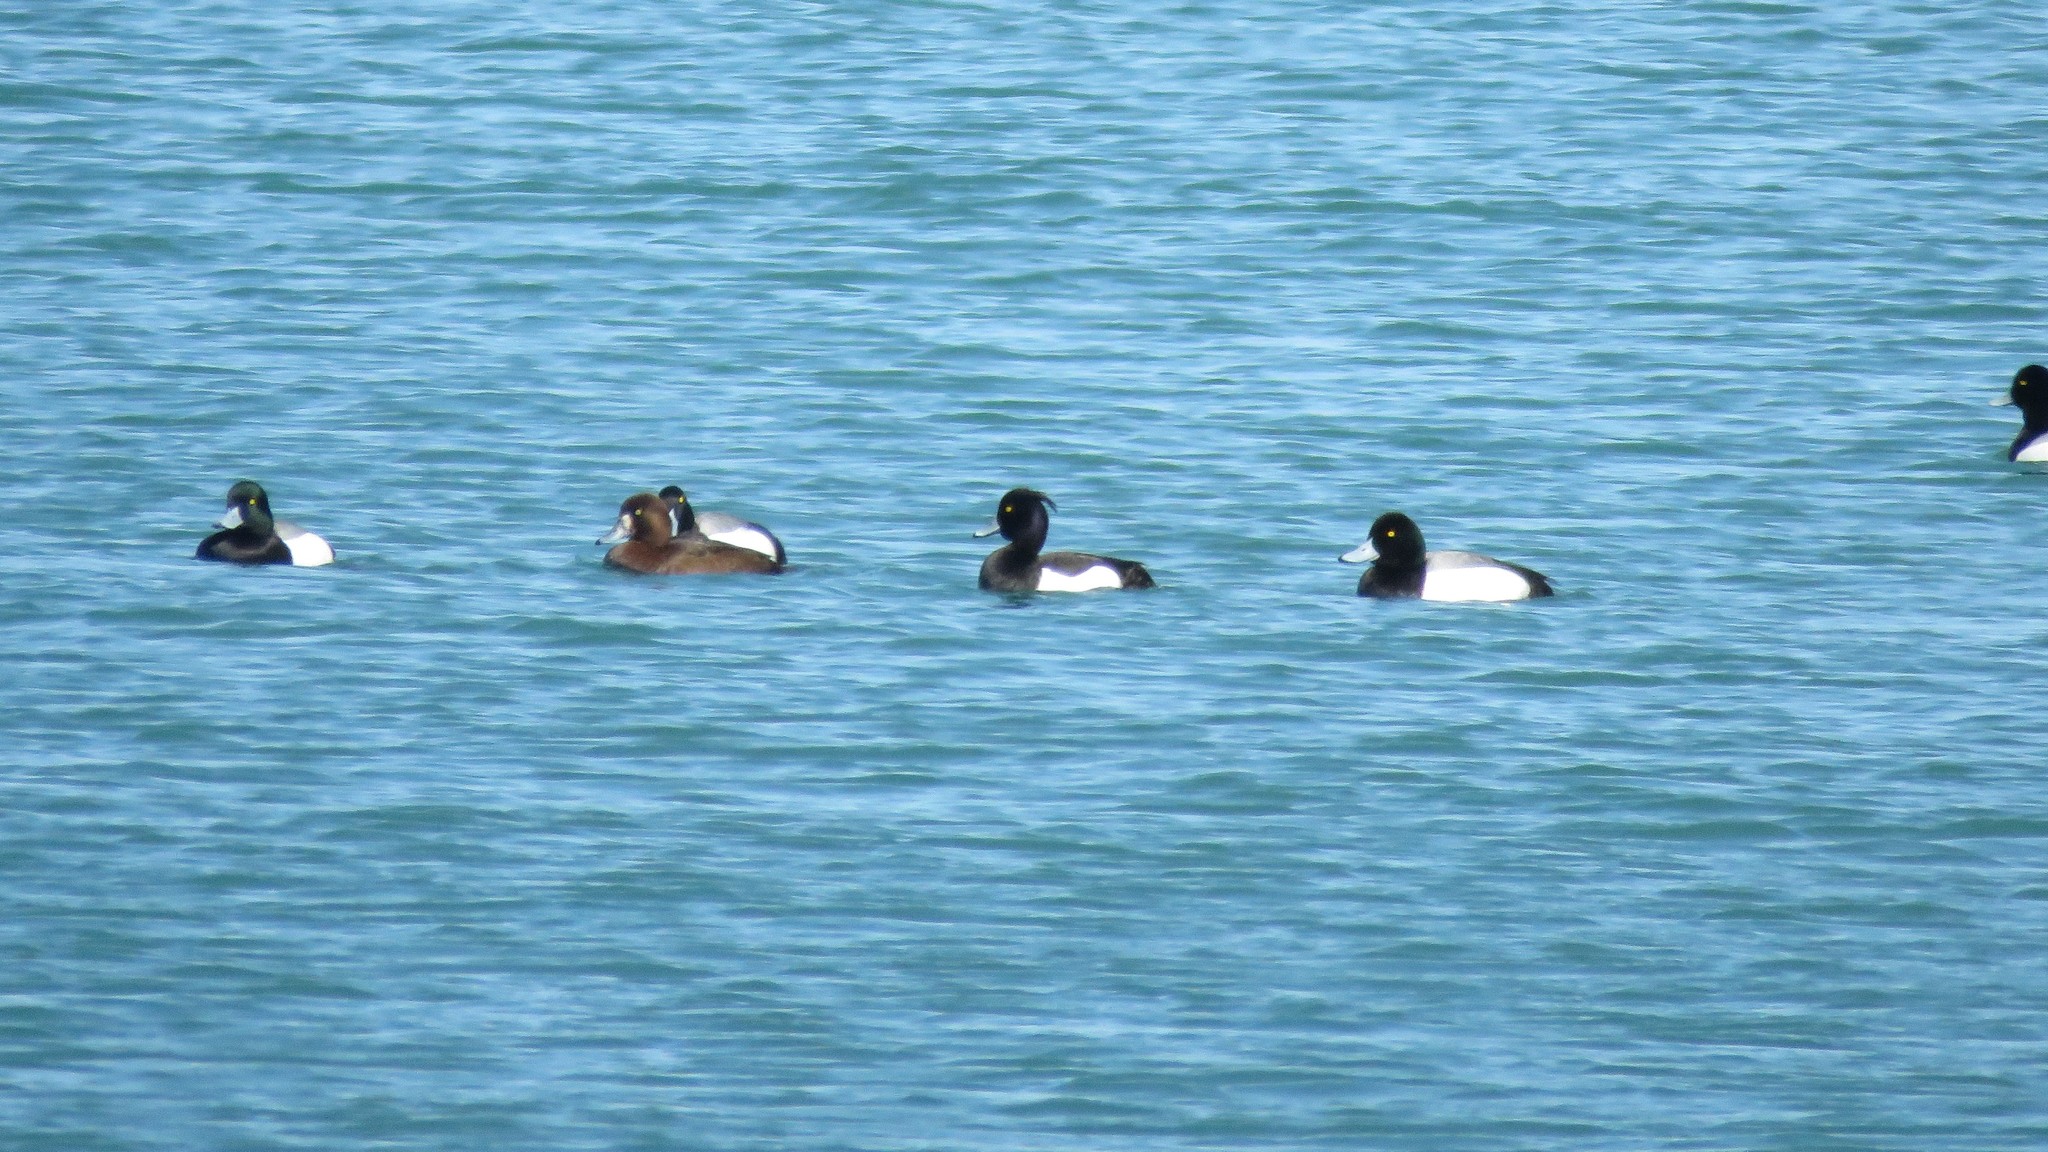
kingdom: Animalia
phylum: Chordata
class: Aves
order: Anseriformes
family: Anatidae
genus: Aythya
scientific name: Aythya fuligula
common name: Tufted duck
